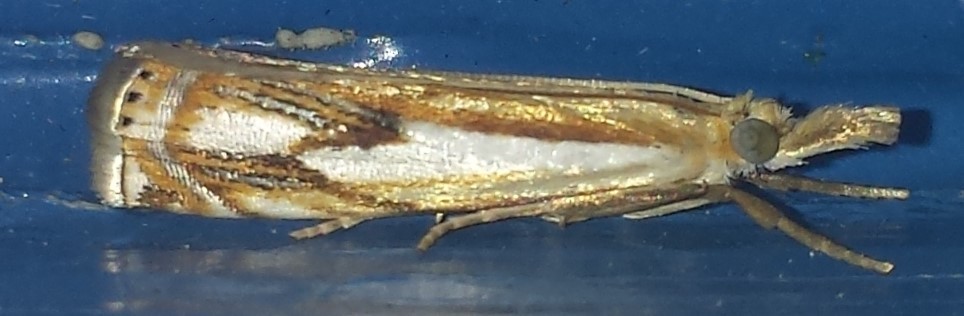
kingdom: Animalia
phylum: Arthropoda
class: Insecta
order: Lepidoptera
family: Crambidae
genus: Crambus
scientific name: Crambus agitatellus
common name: Double-banded grass-veneer
